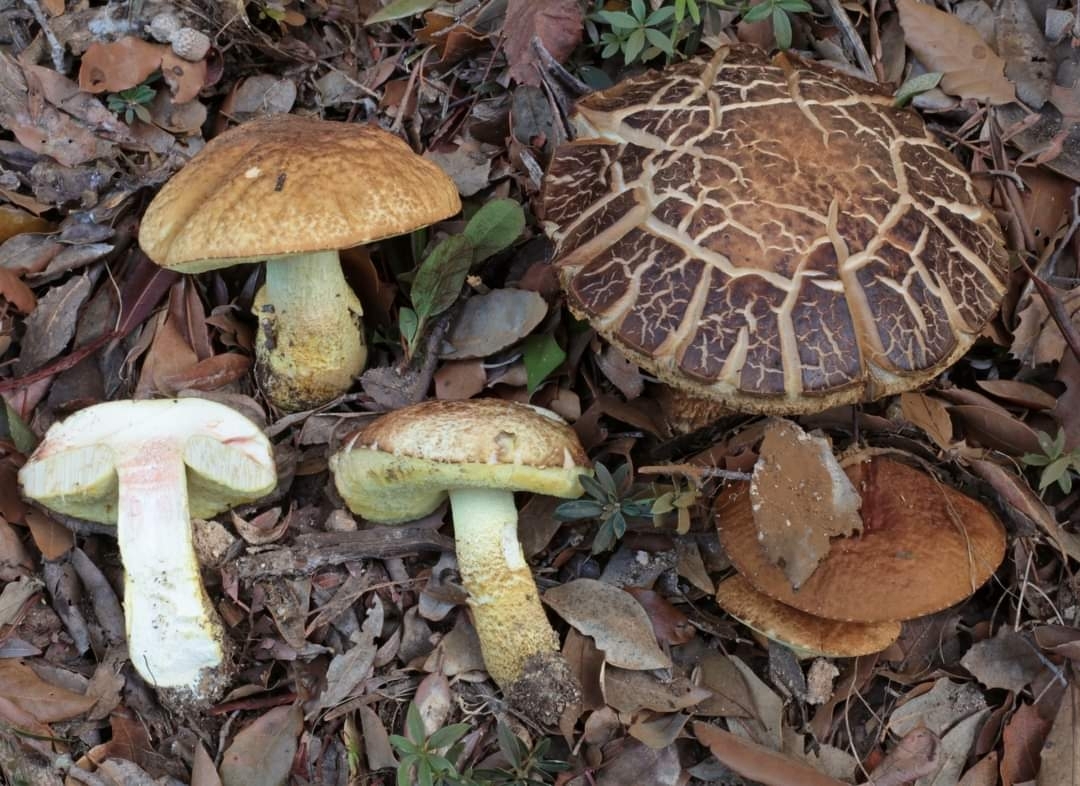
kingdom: Fungi
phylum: Basidiomycota
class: Agaricomycetes
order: Boletales
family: Boletaceae
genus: Leccinellum
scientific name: Leccinellum lepidum
